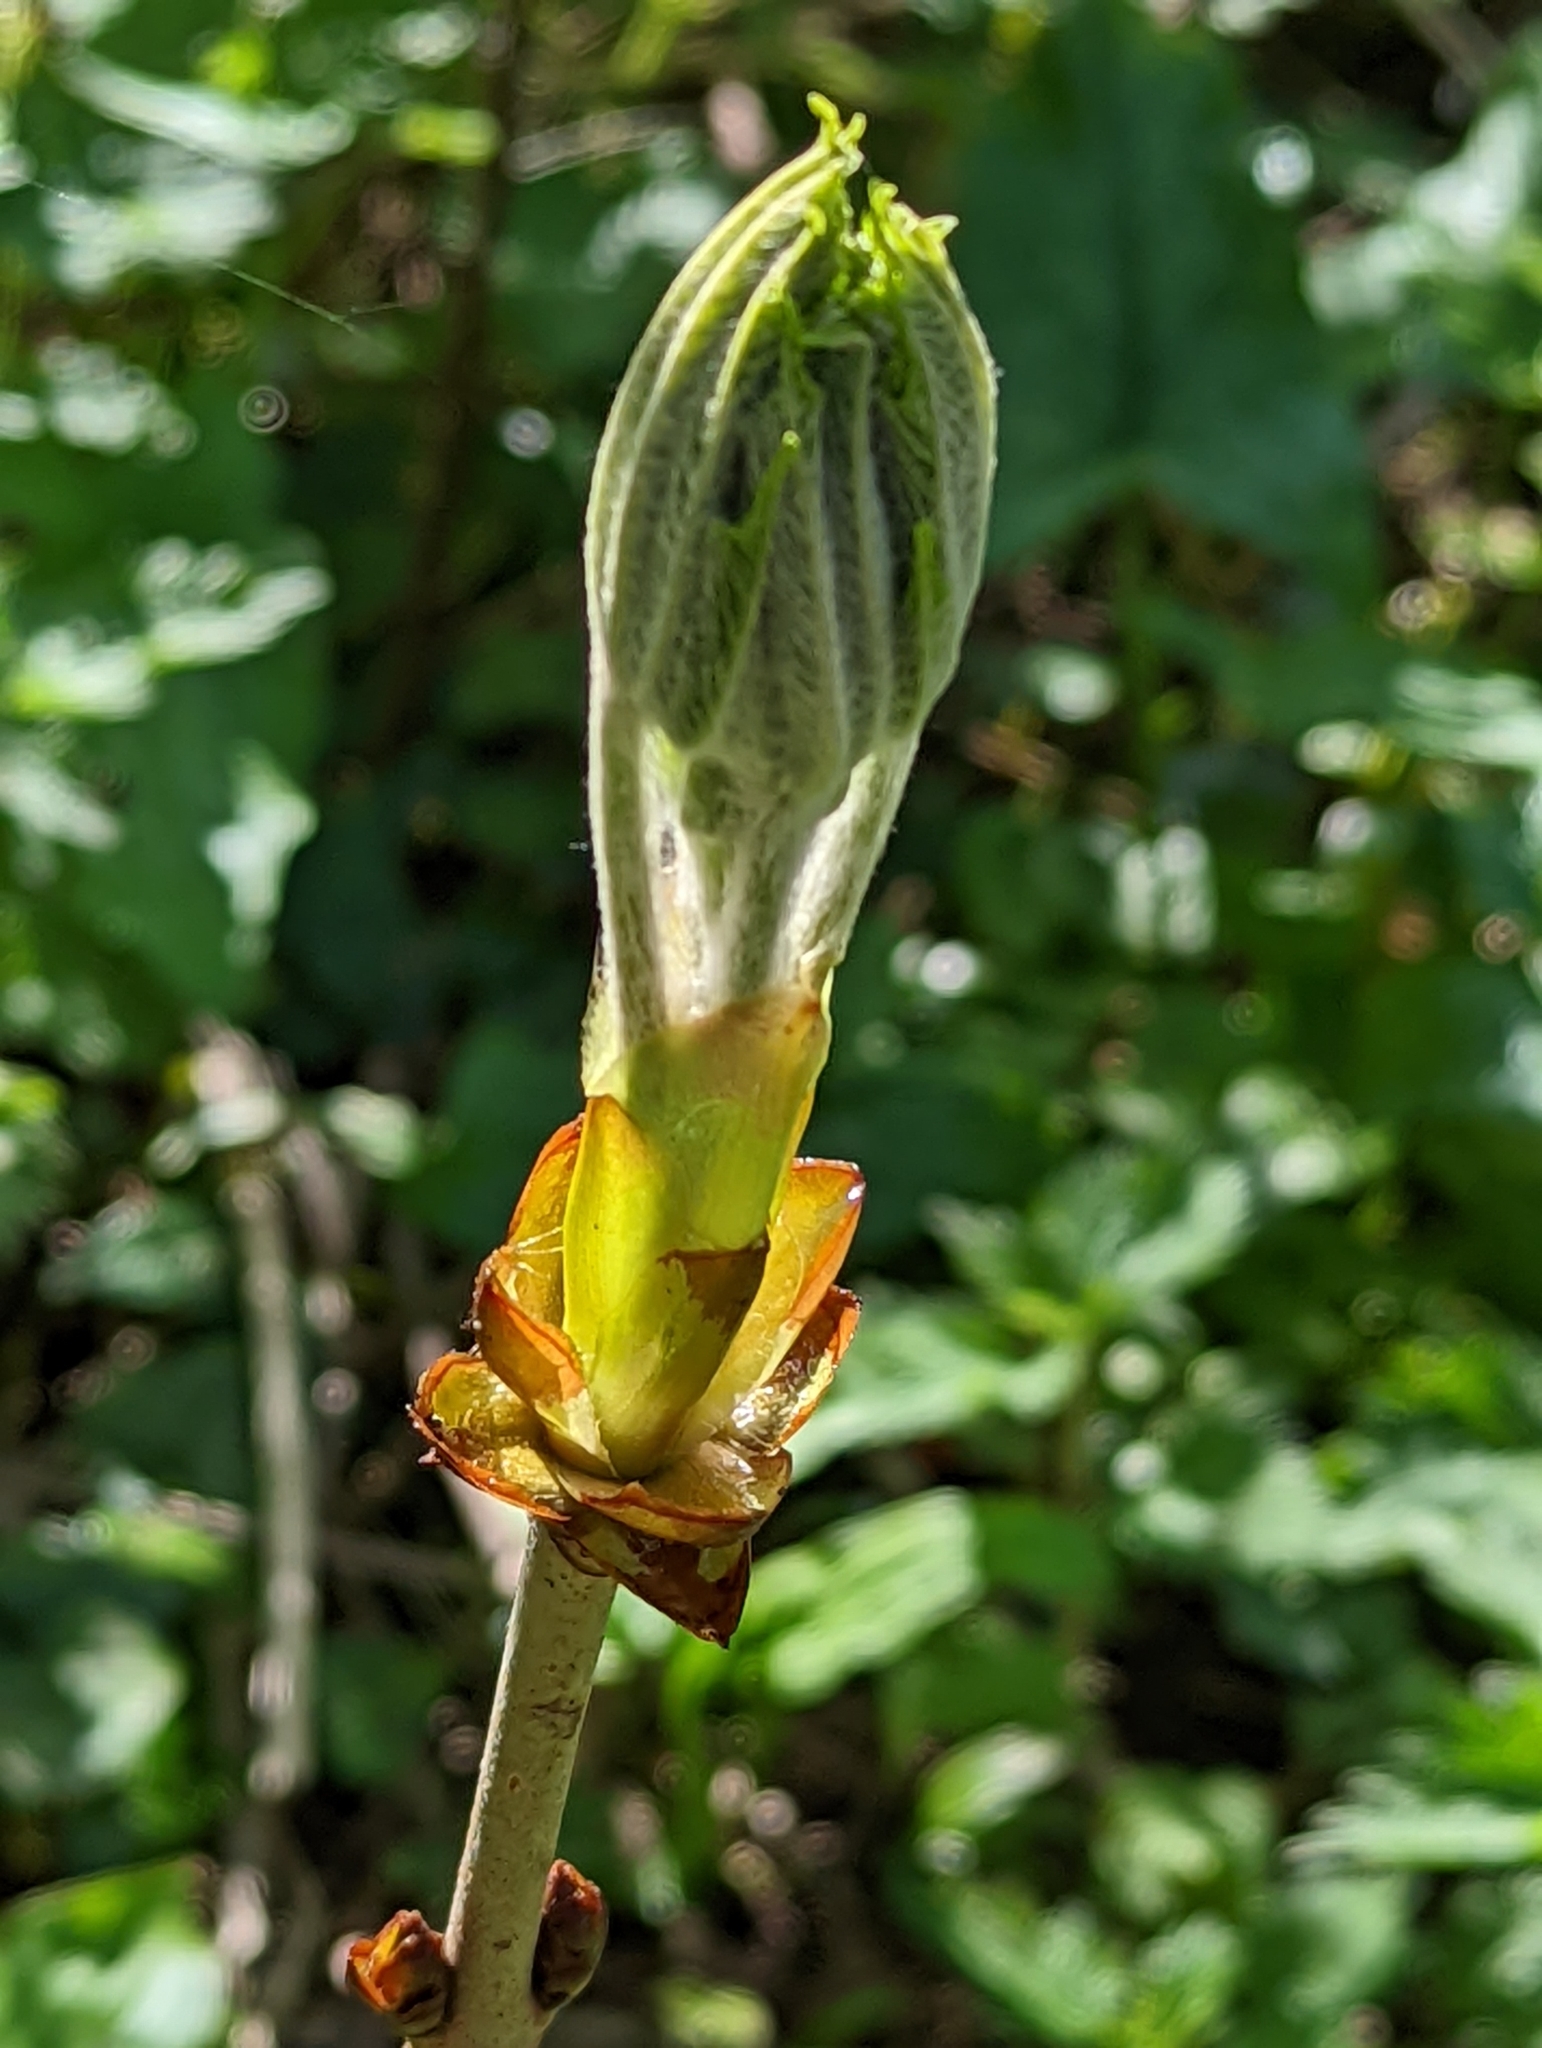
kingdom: Plantae
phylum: Tracheophyta
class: Magnoliopsida
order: Sapindales
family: Sapindaceae
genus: Aesculus
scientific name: Aesculus hippocastanum
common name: Horse-chestnut
